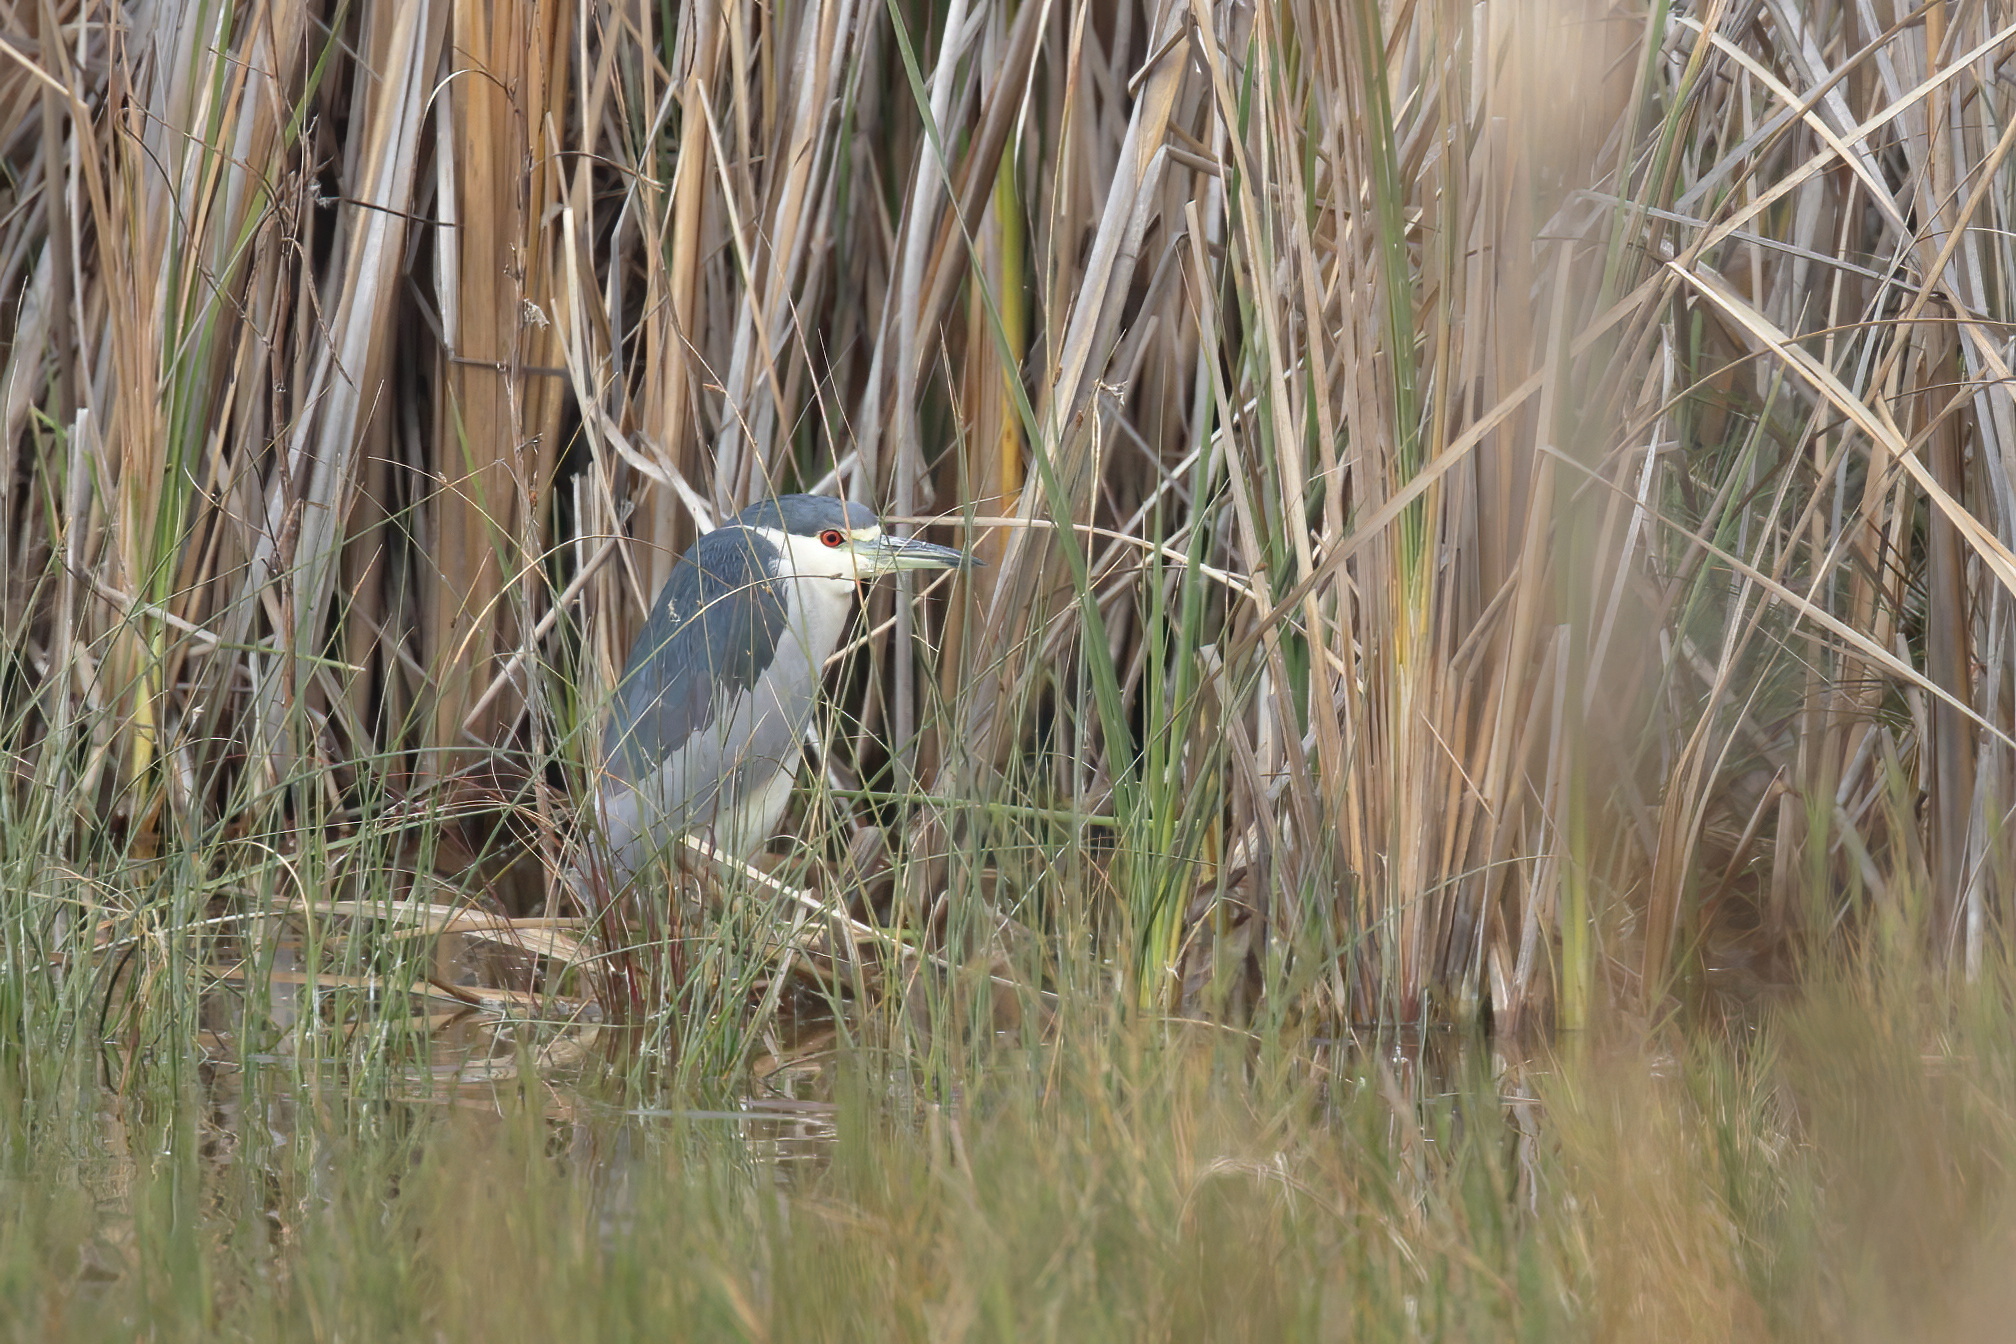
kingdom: Animalia
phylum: Chordata
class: Aves
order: Pelecaniformes
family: Ardeidae
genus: Nycticorax
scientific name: Nycticorax nycticorax
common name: Black-crowned night heron
